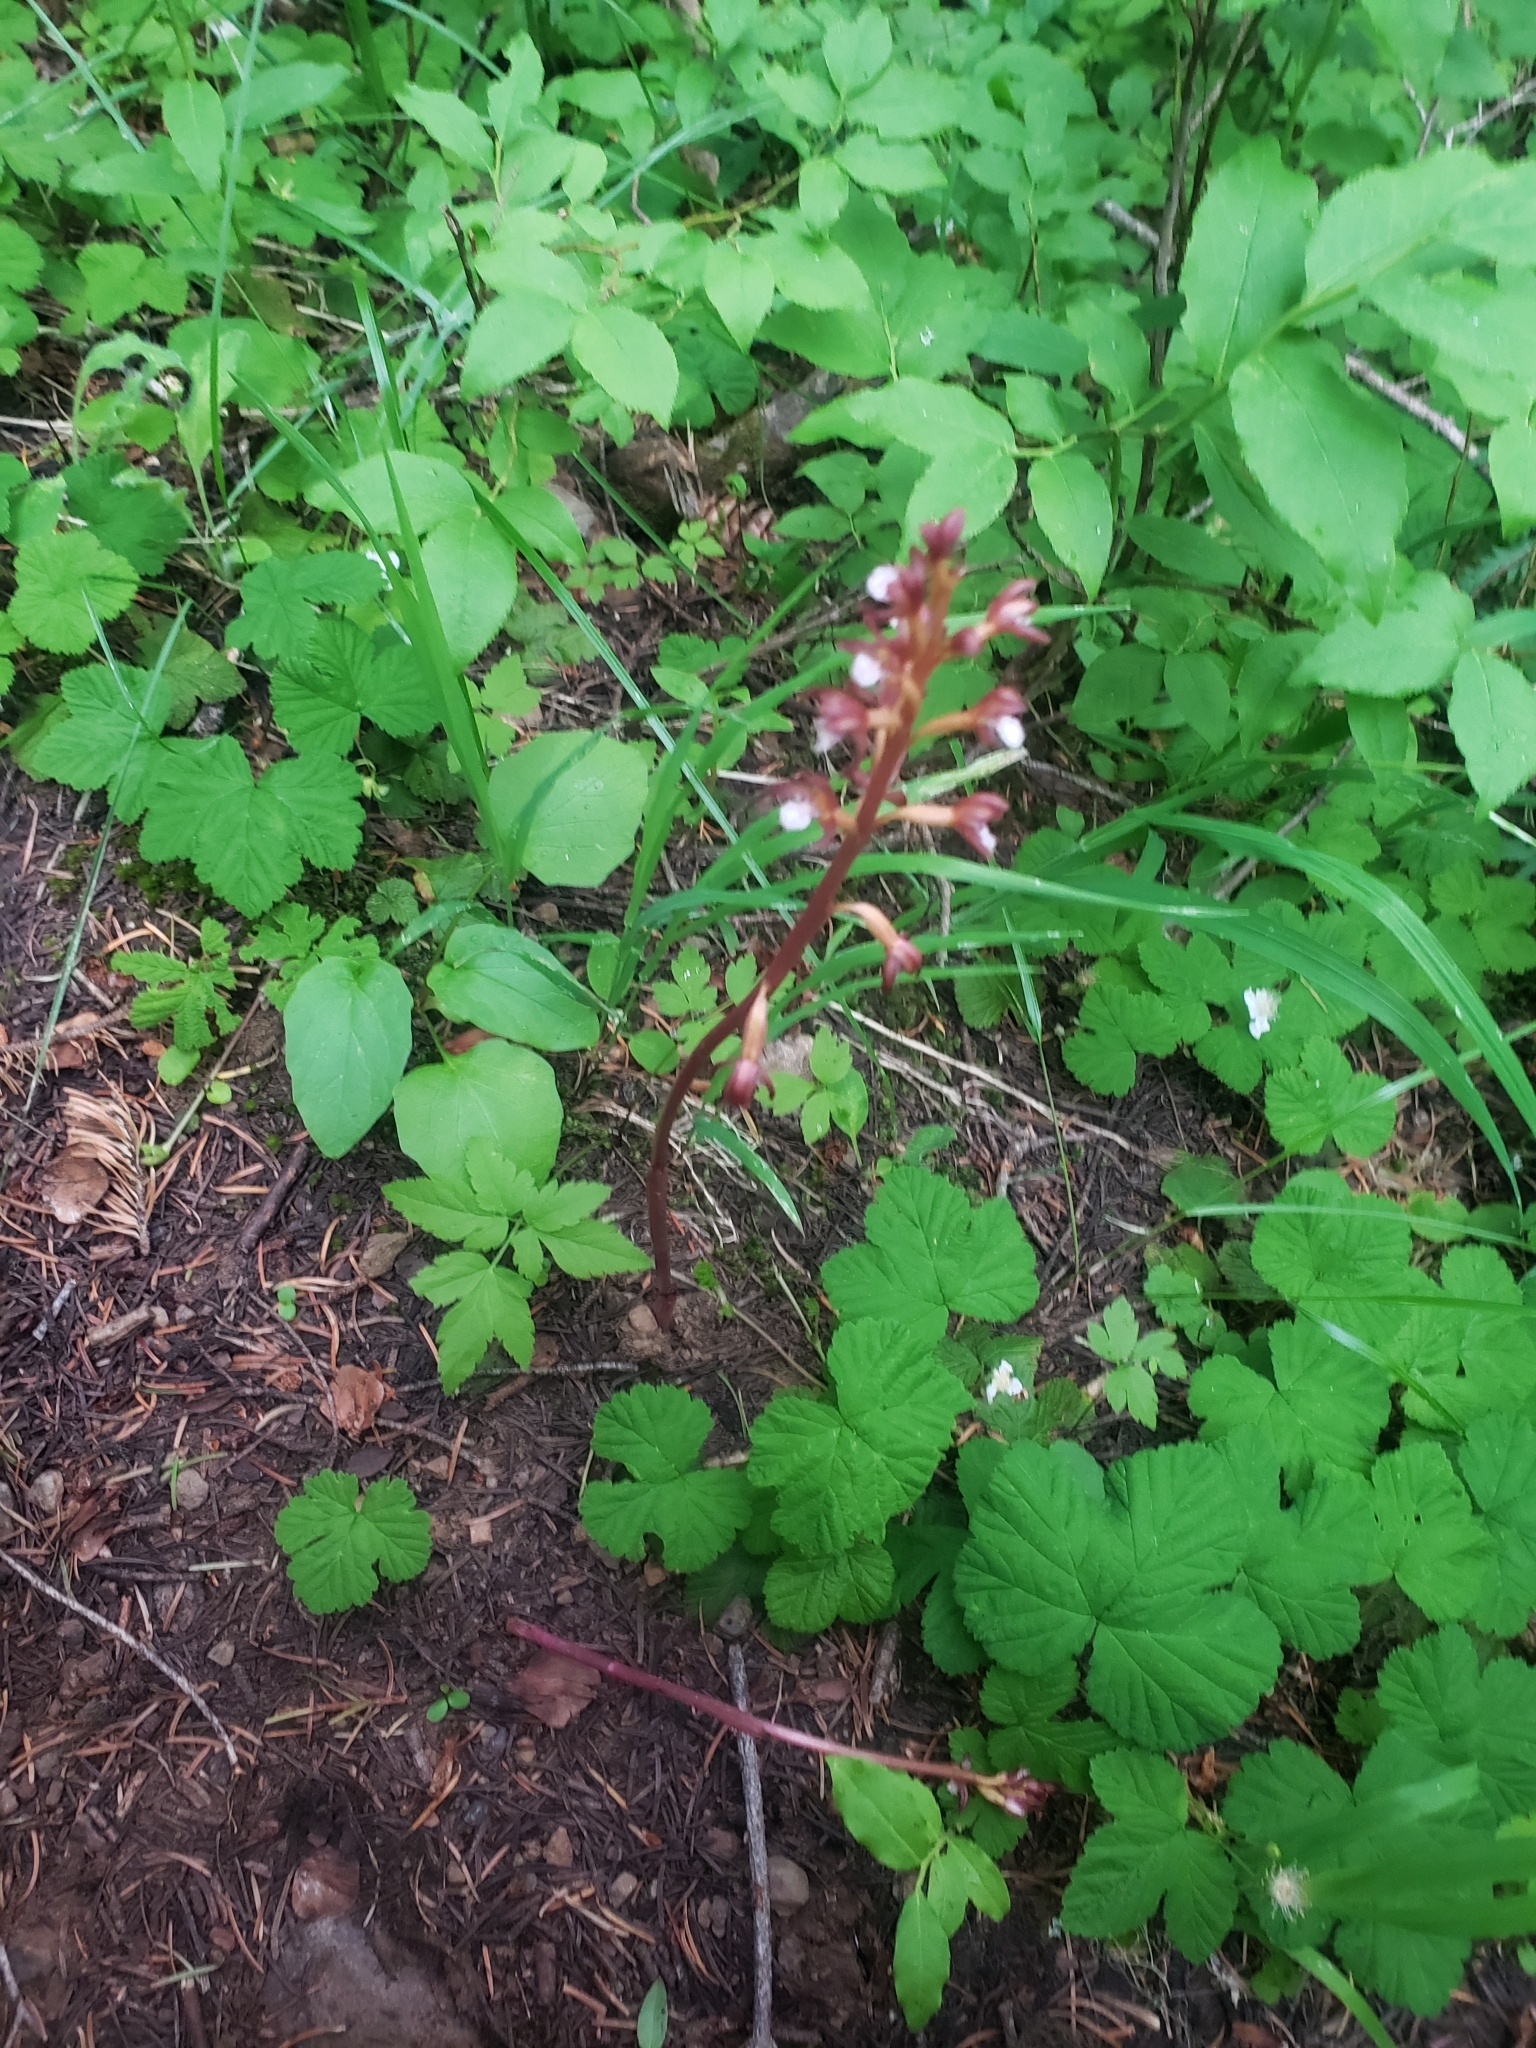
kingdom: Plantae
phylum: Tracheophyta
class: Liliopsida
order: Asparagales
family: Orchidaceae
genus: Corallorhiza
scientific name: Corallorhiza maculata
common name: Spotted coralroot
